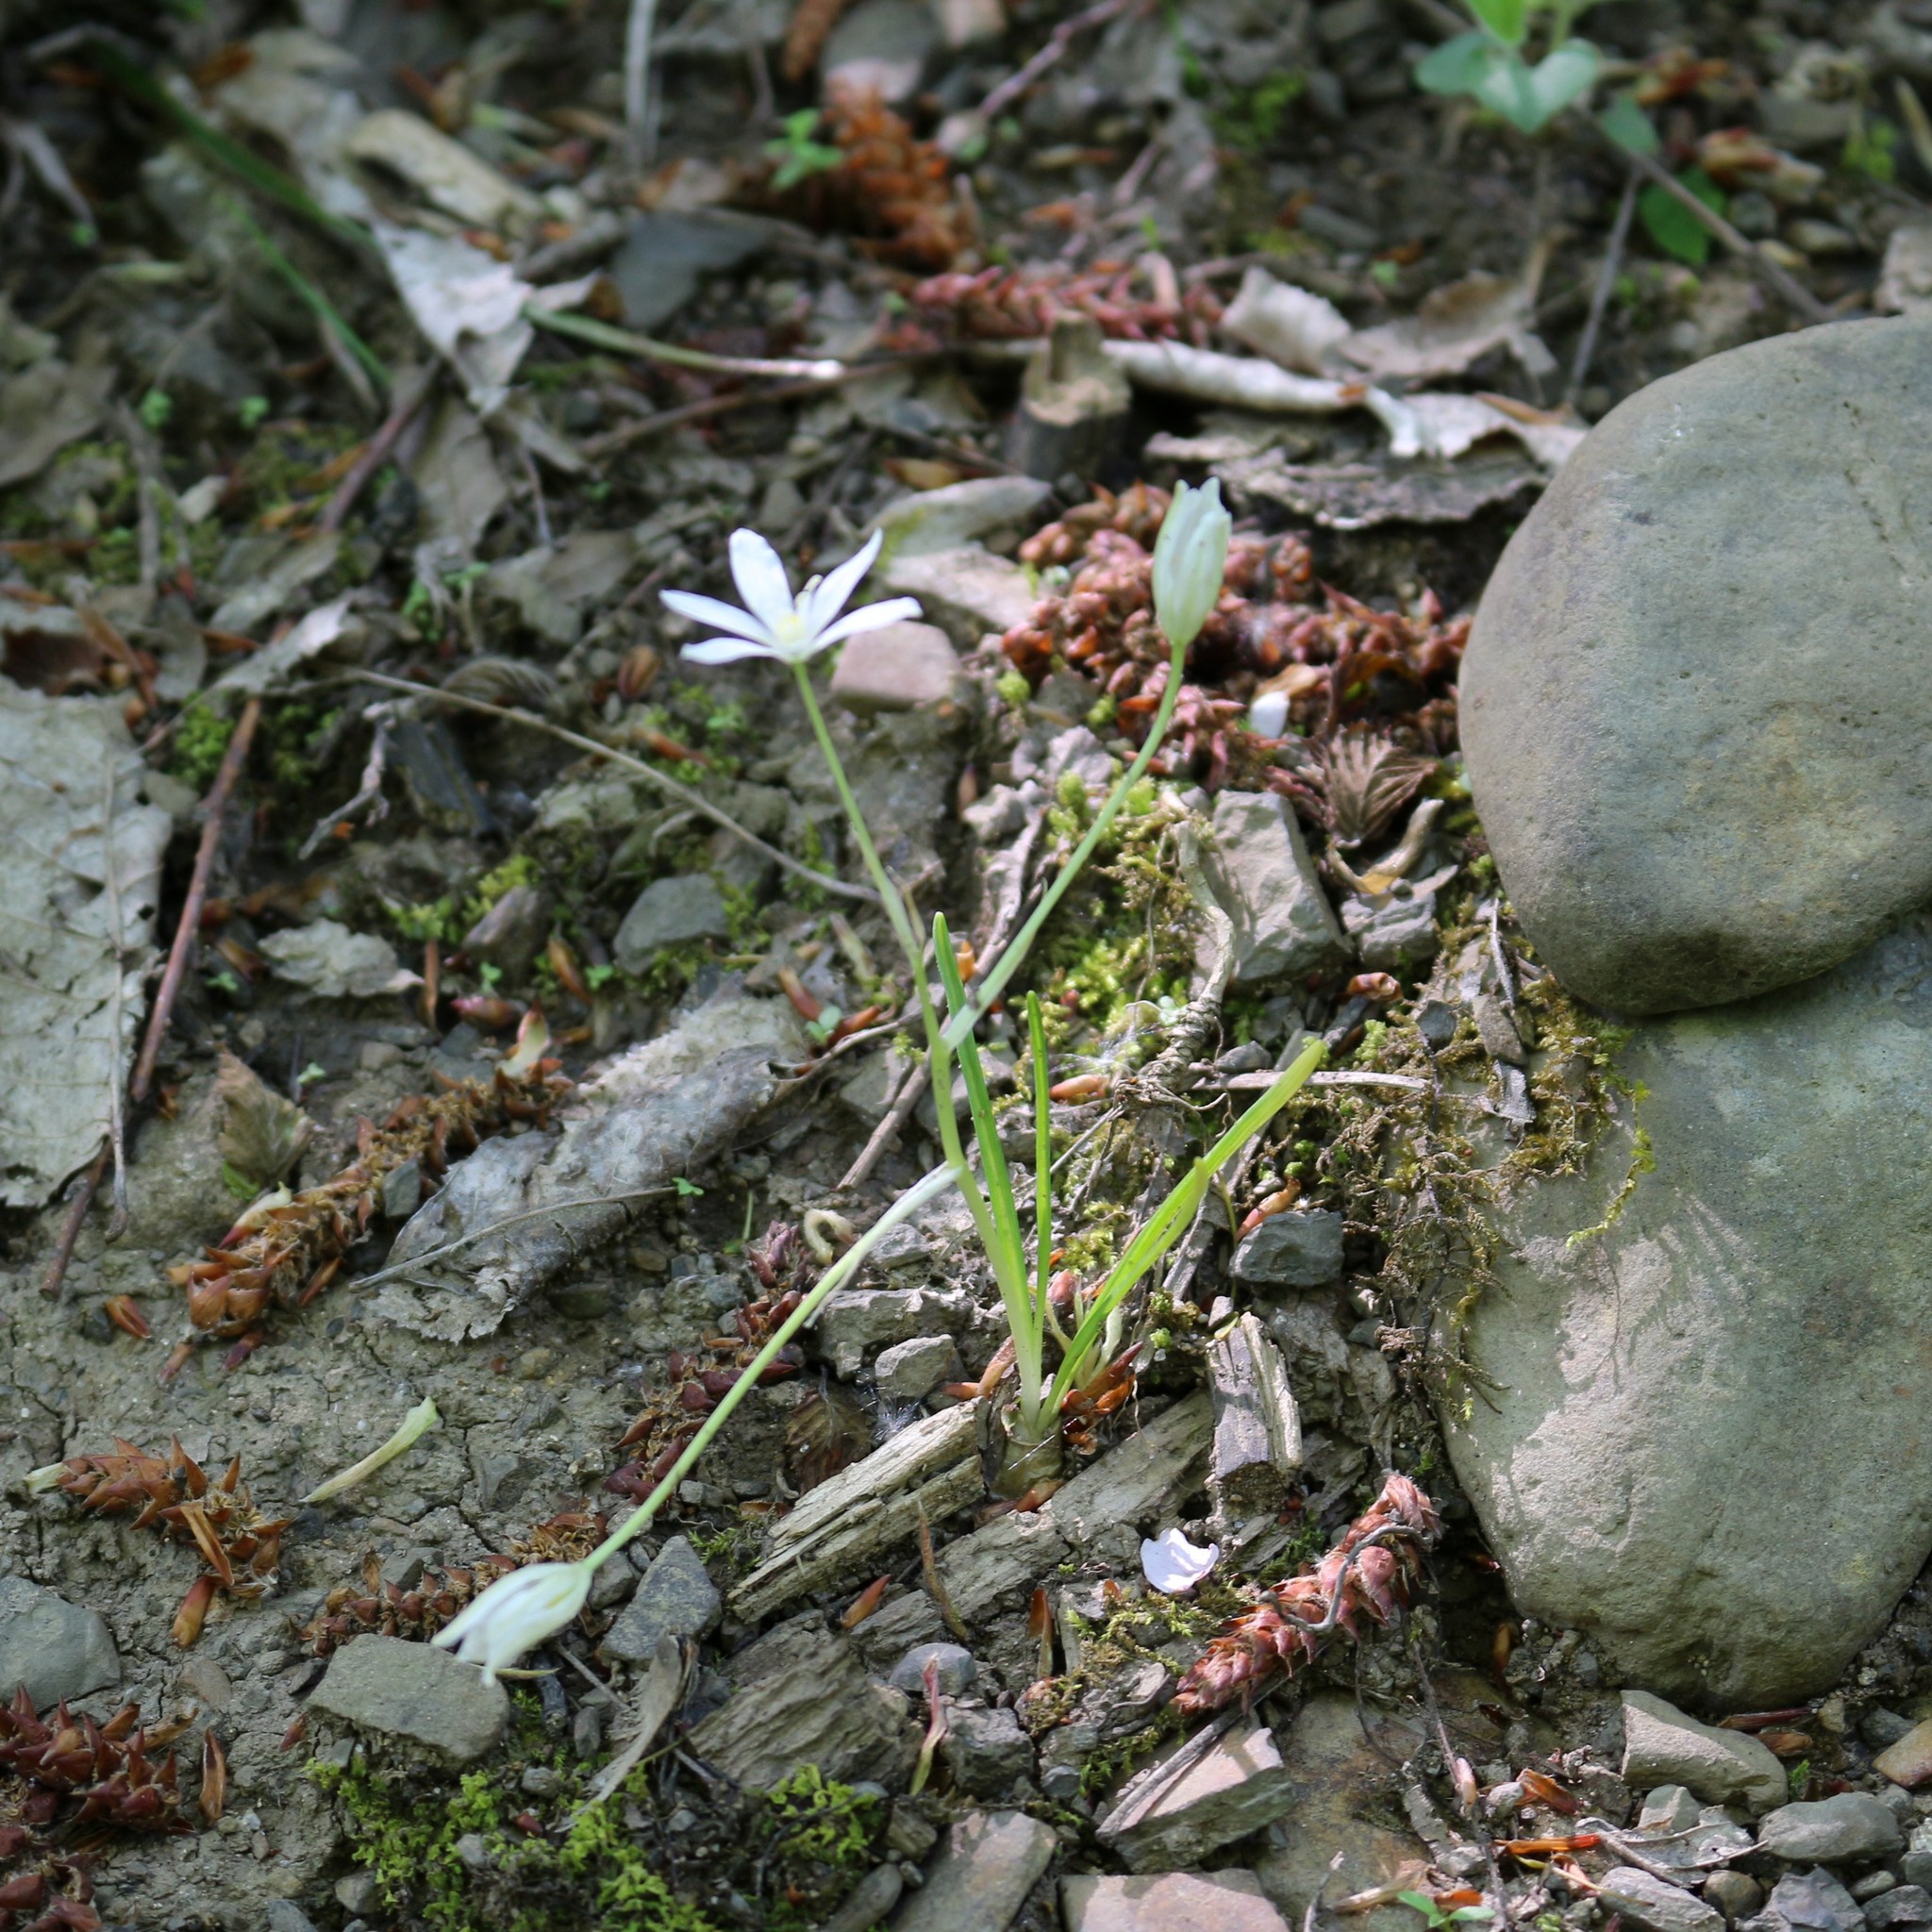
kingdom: Plantae
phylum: Tracheophyta
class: Liliopsida
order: Asparagales
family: Asparagaceae
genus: Ornithogalum
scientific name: Ornithogalum woronowii
